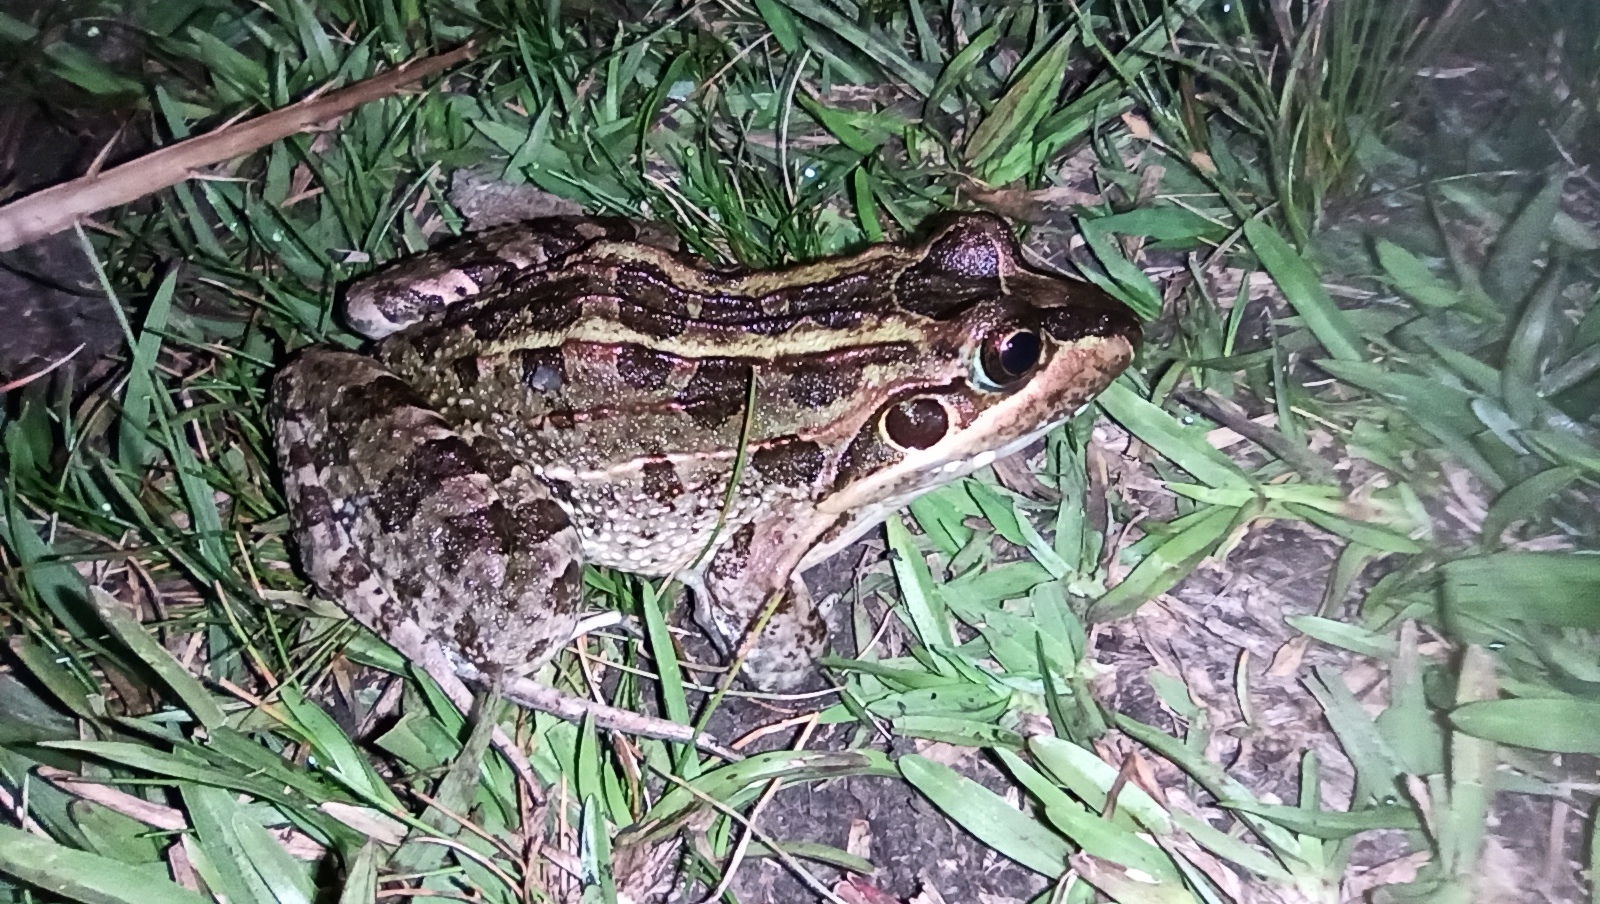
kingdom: Animalia
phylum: Chordata
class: Amphibia
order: Anura
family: Leptodactylidae
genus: Leptodactylus
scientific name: Leptodactylus luctator
